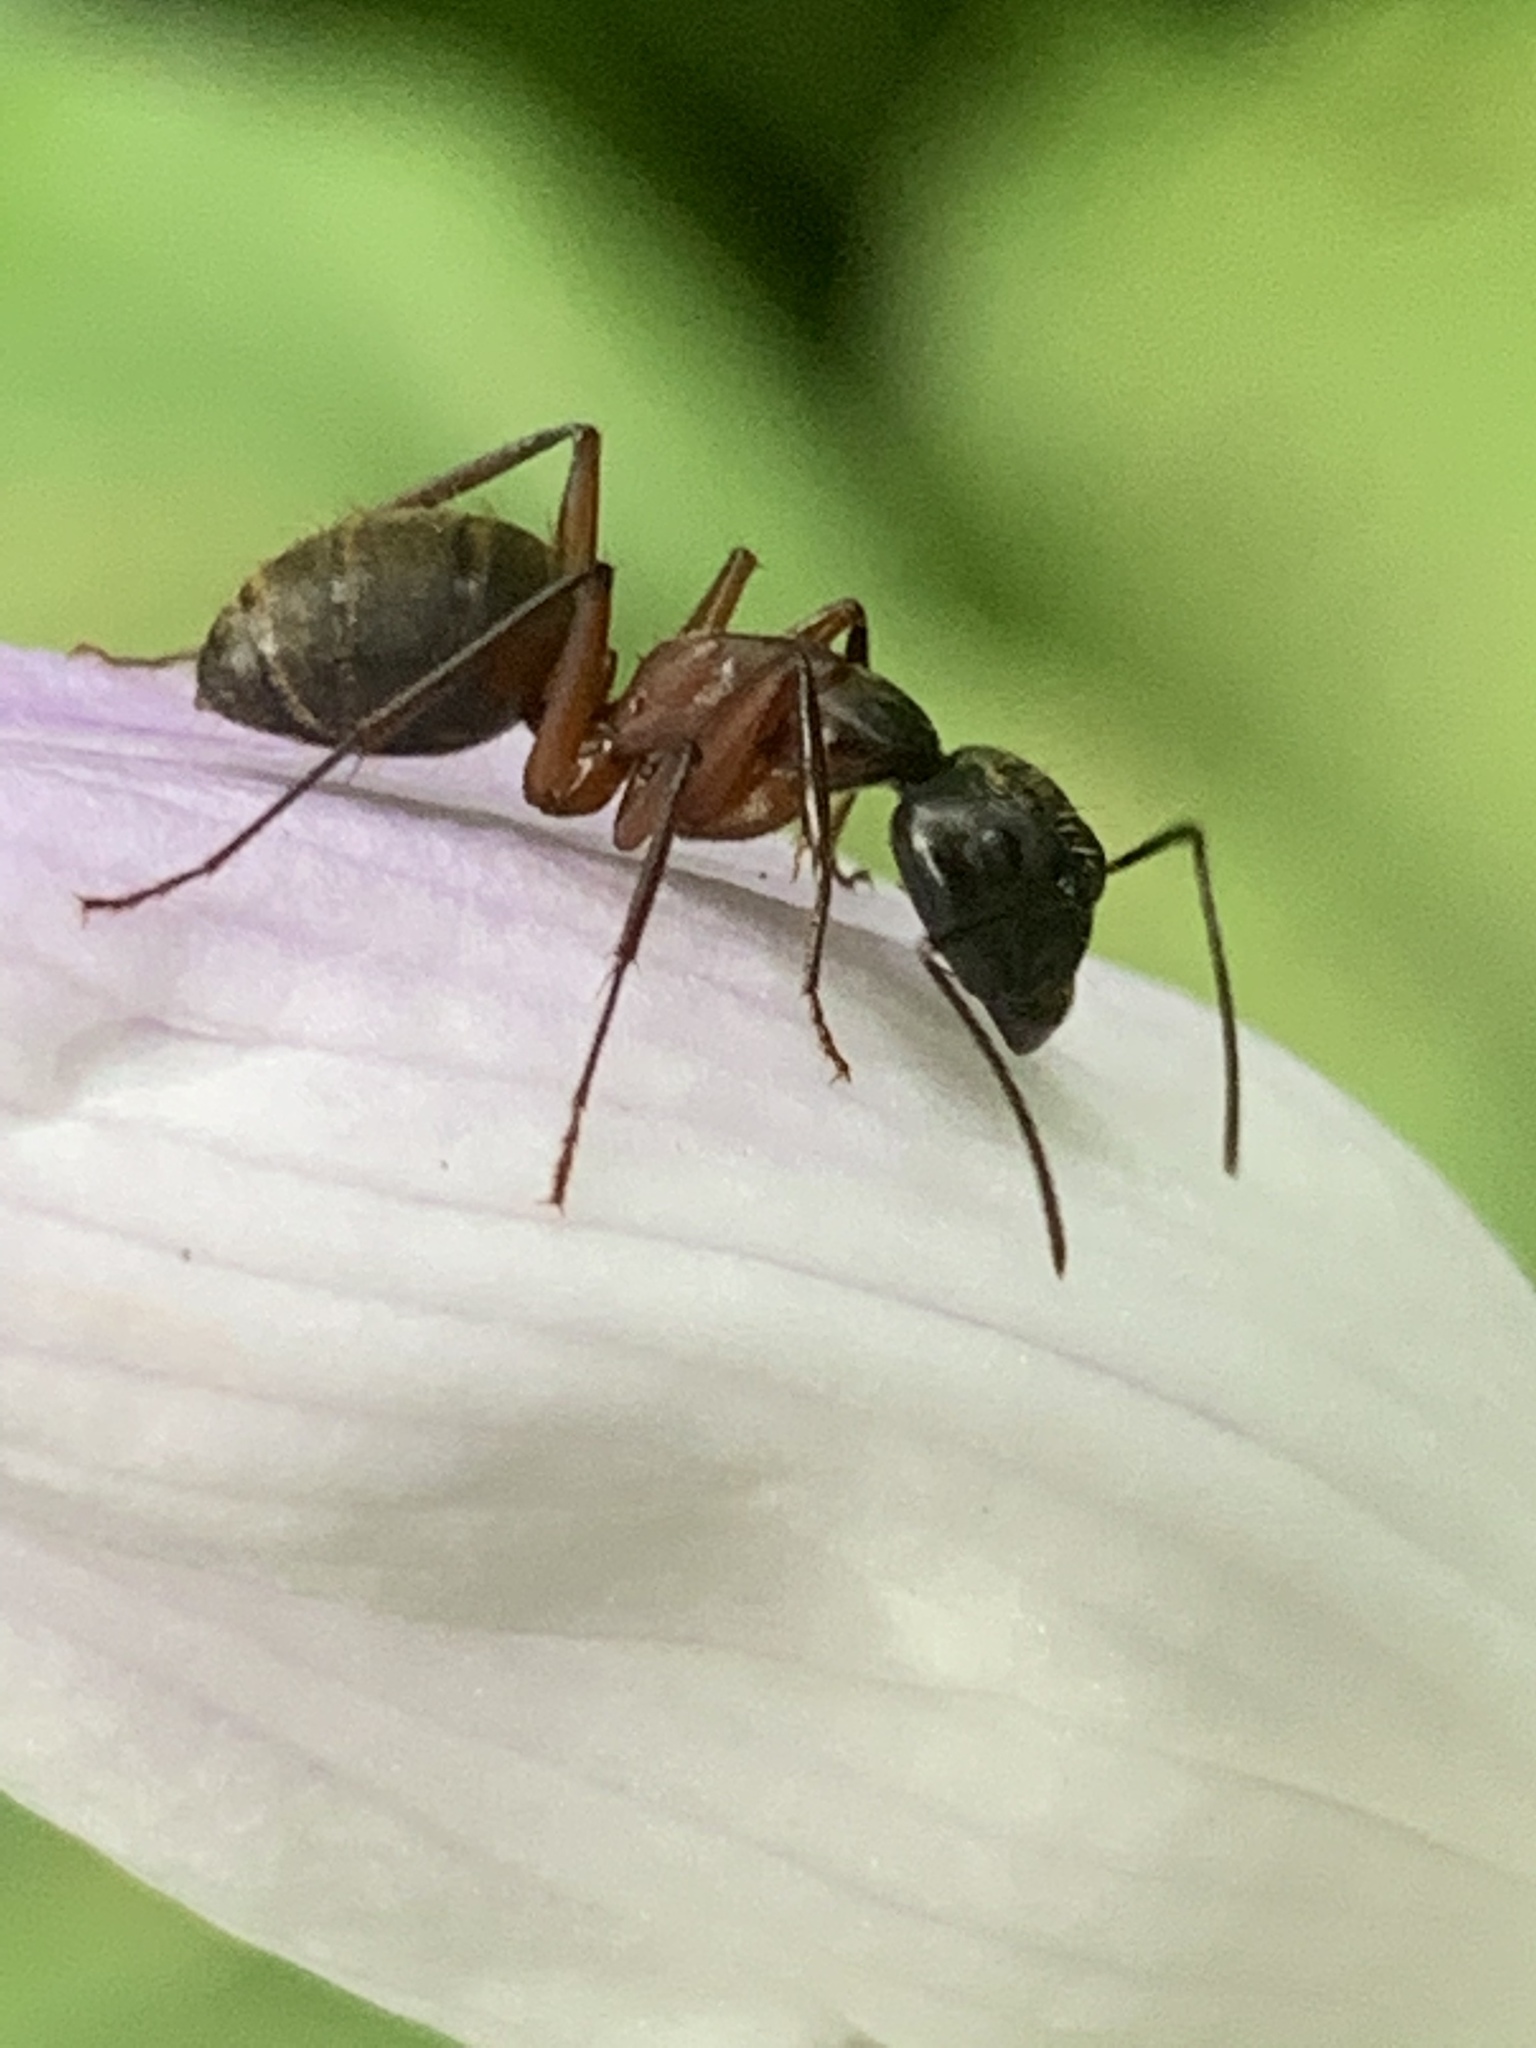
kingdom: Animalia
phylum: Arthropoda
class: Insecta
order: Hymenoptera
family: Formicidae
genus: Camponotus
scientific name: Camponotus chromaiodes
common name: Red carpenter ant
